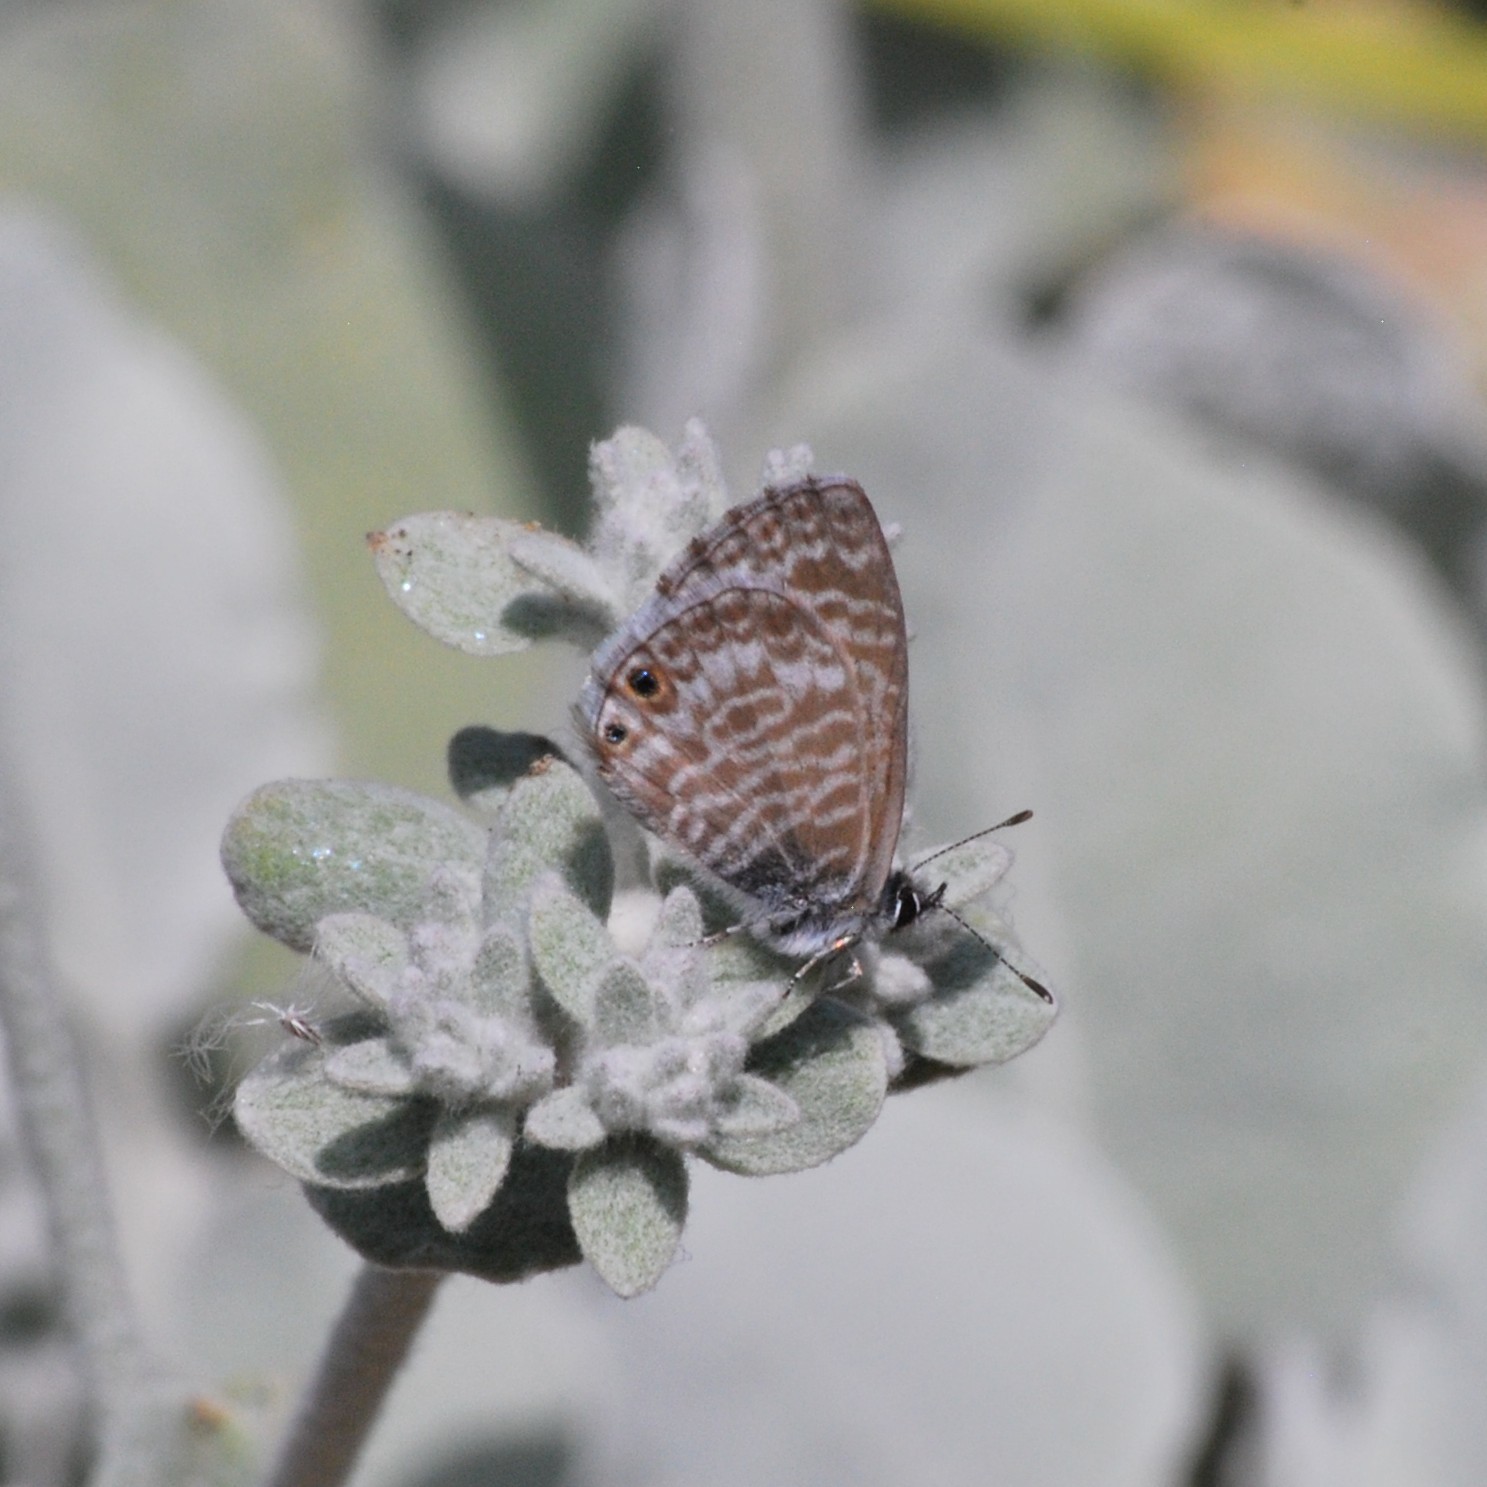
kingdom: Animalia
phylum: Arthropoda
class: Insecta
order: Lepidoptera
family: Lycaenidae
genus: Leptotes
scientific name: Leptotes marina
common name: Marine blue
